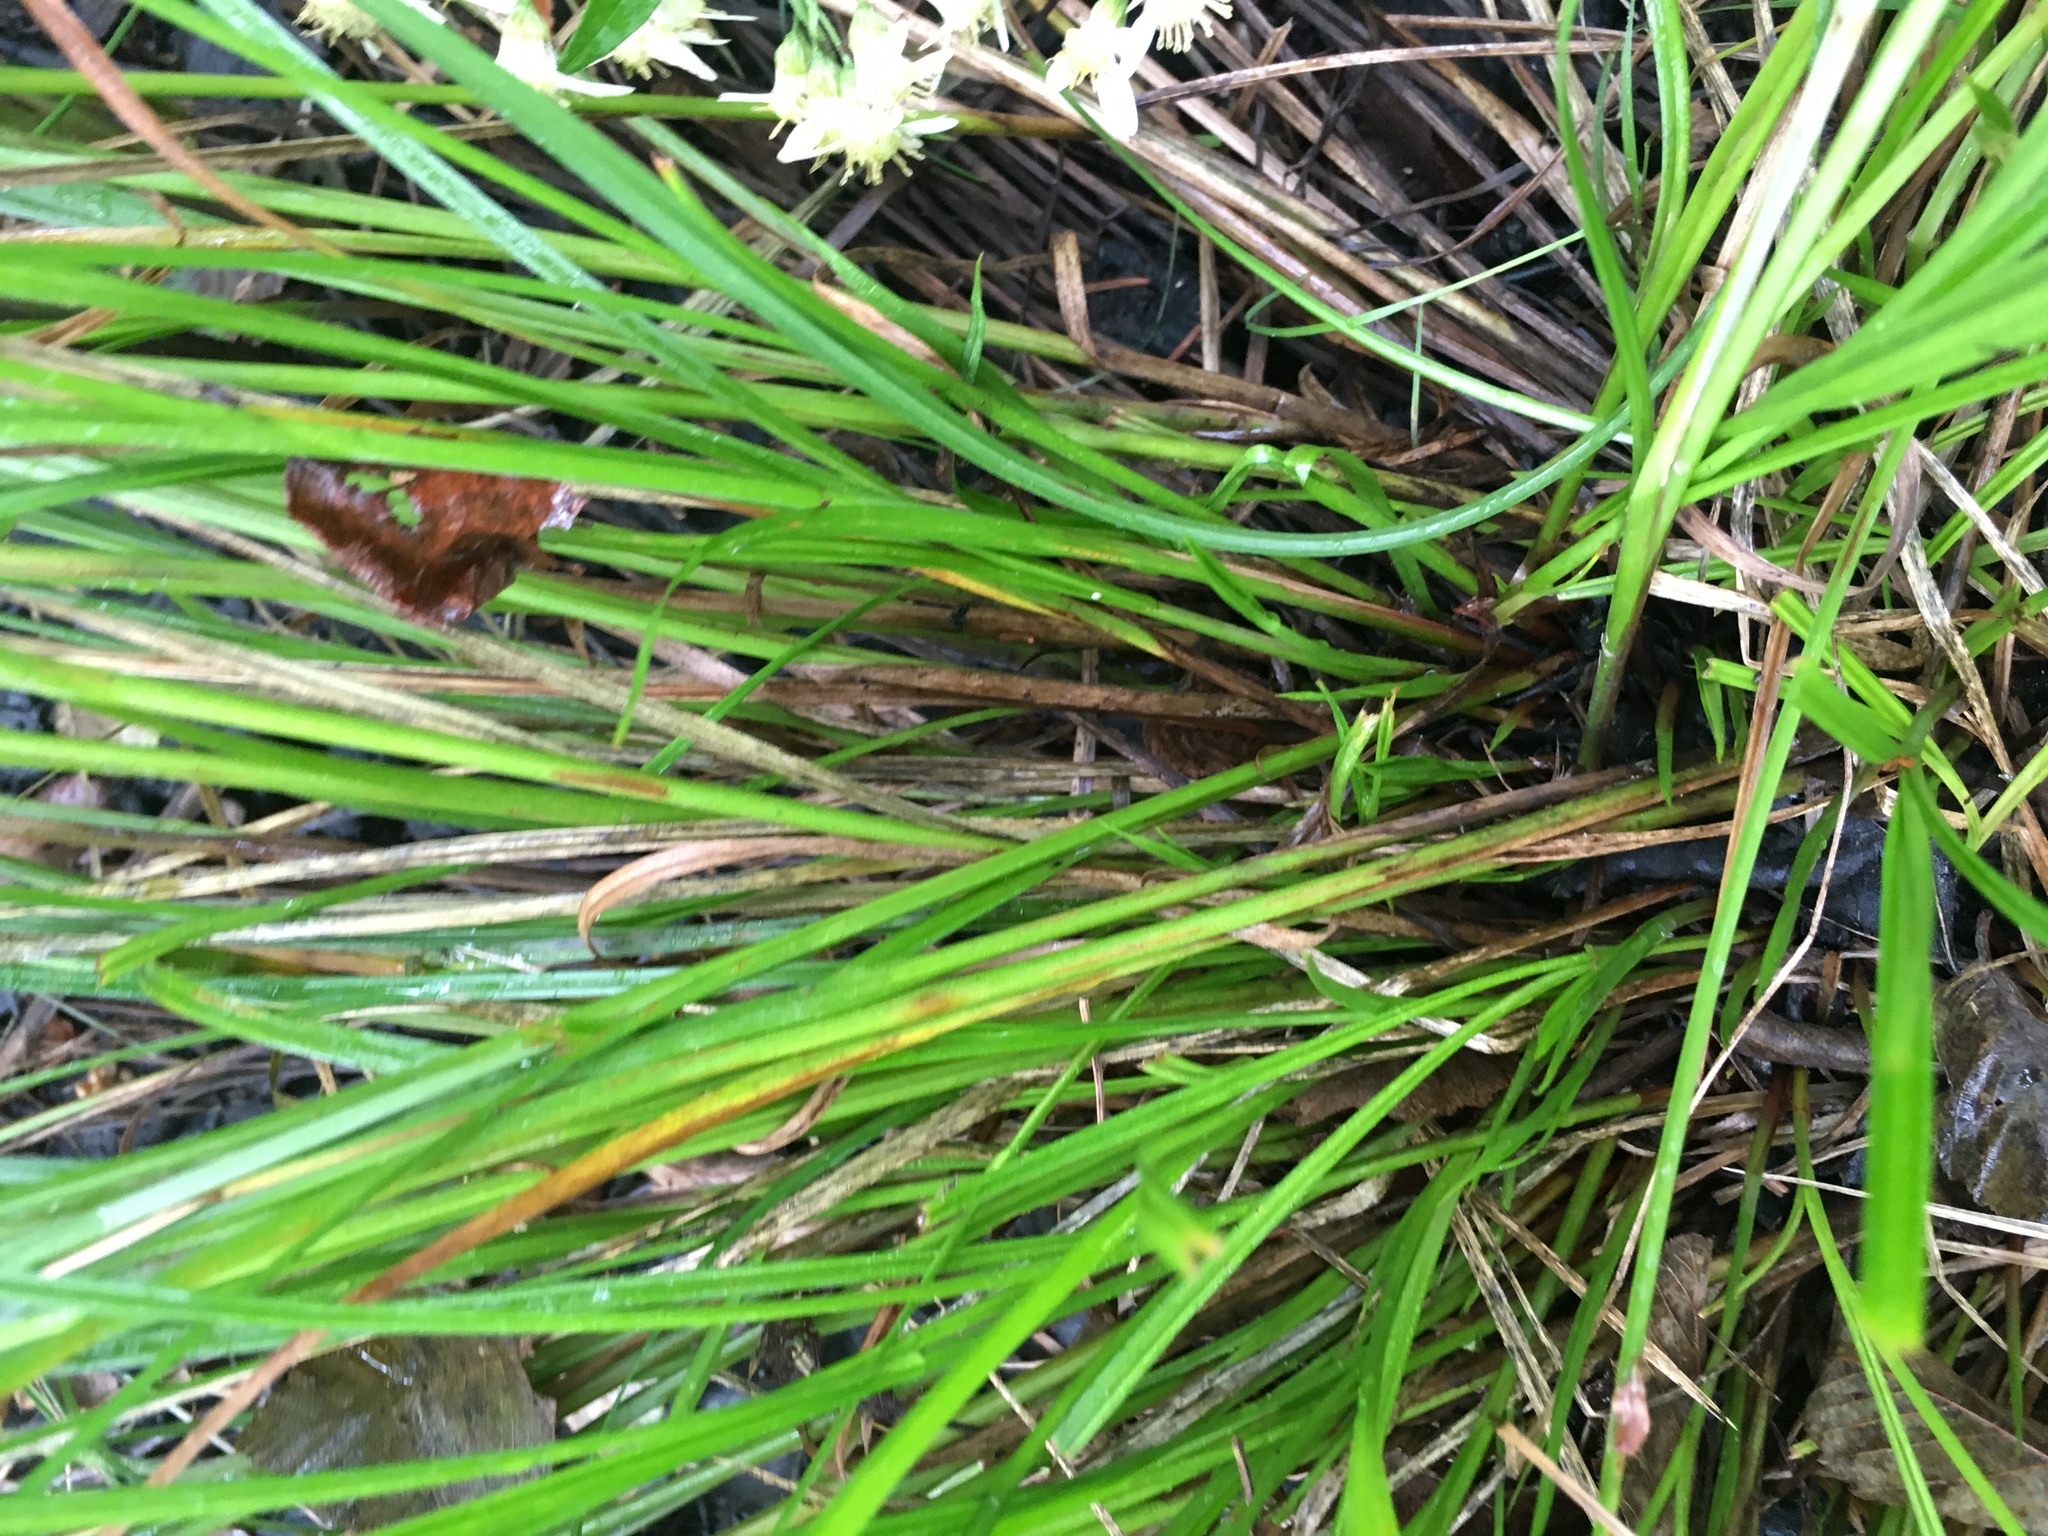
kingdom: Plantae
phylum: Tracheophyta
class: Liliopsida
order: Poales
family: Cyperaceae
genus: Carex
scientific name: Carex tuckermanii
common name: Tuckerman's sedge
